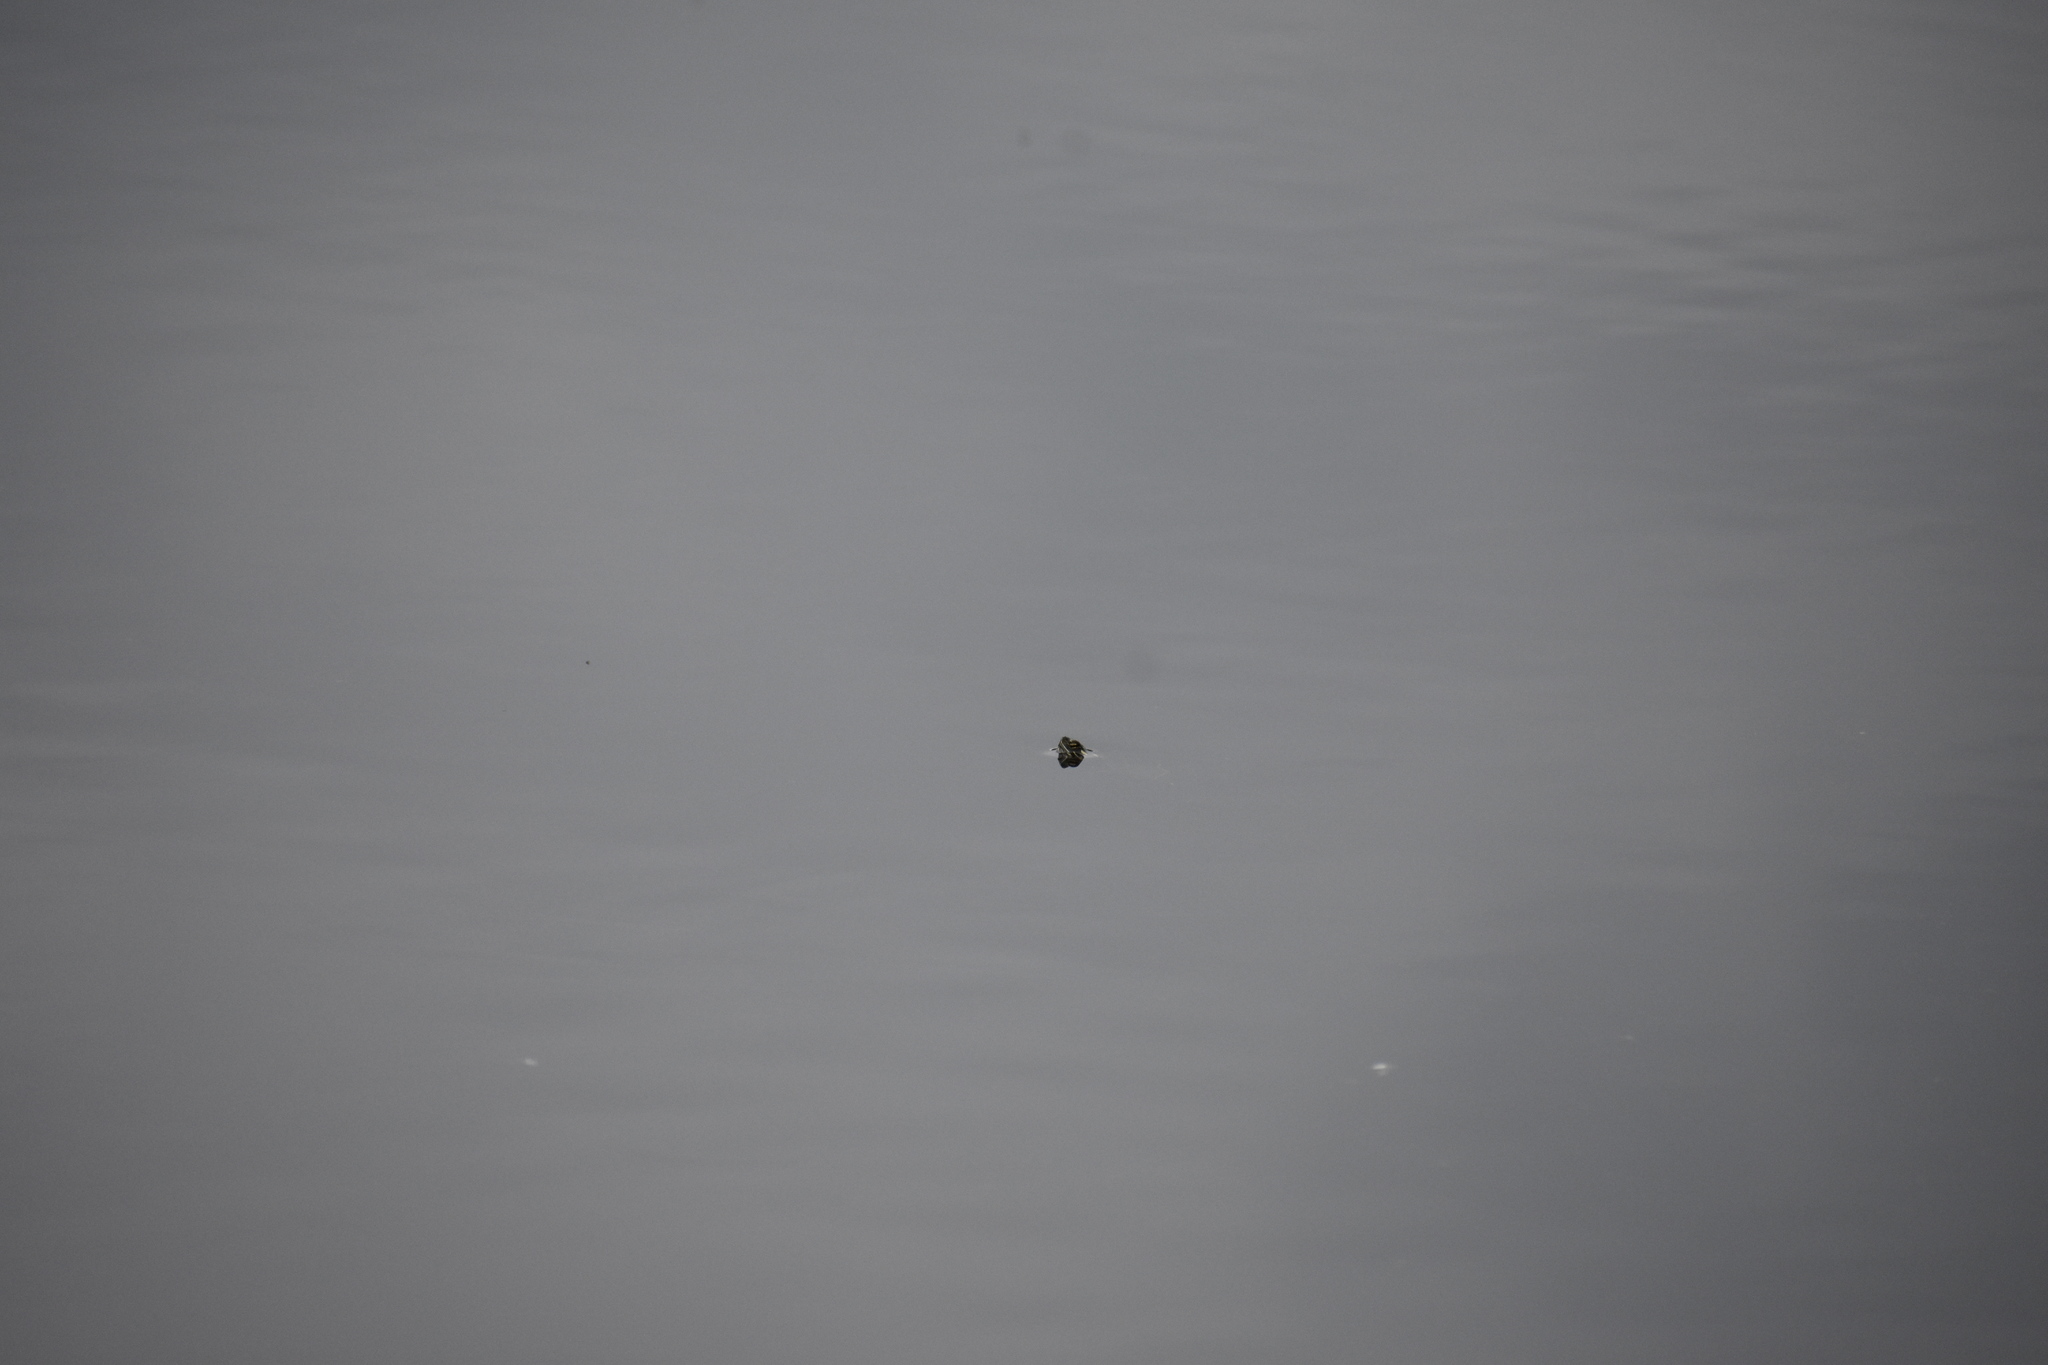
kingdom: Animalia
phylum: Chordata
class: Testudines
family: Emydidae
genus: Chrysemys
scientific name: Chrysemys picta
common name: Painted turtle
